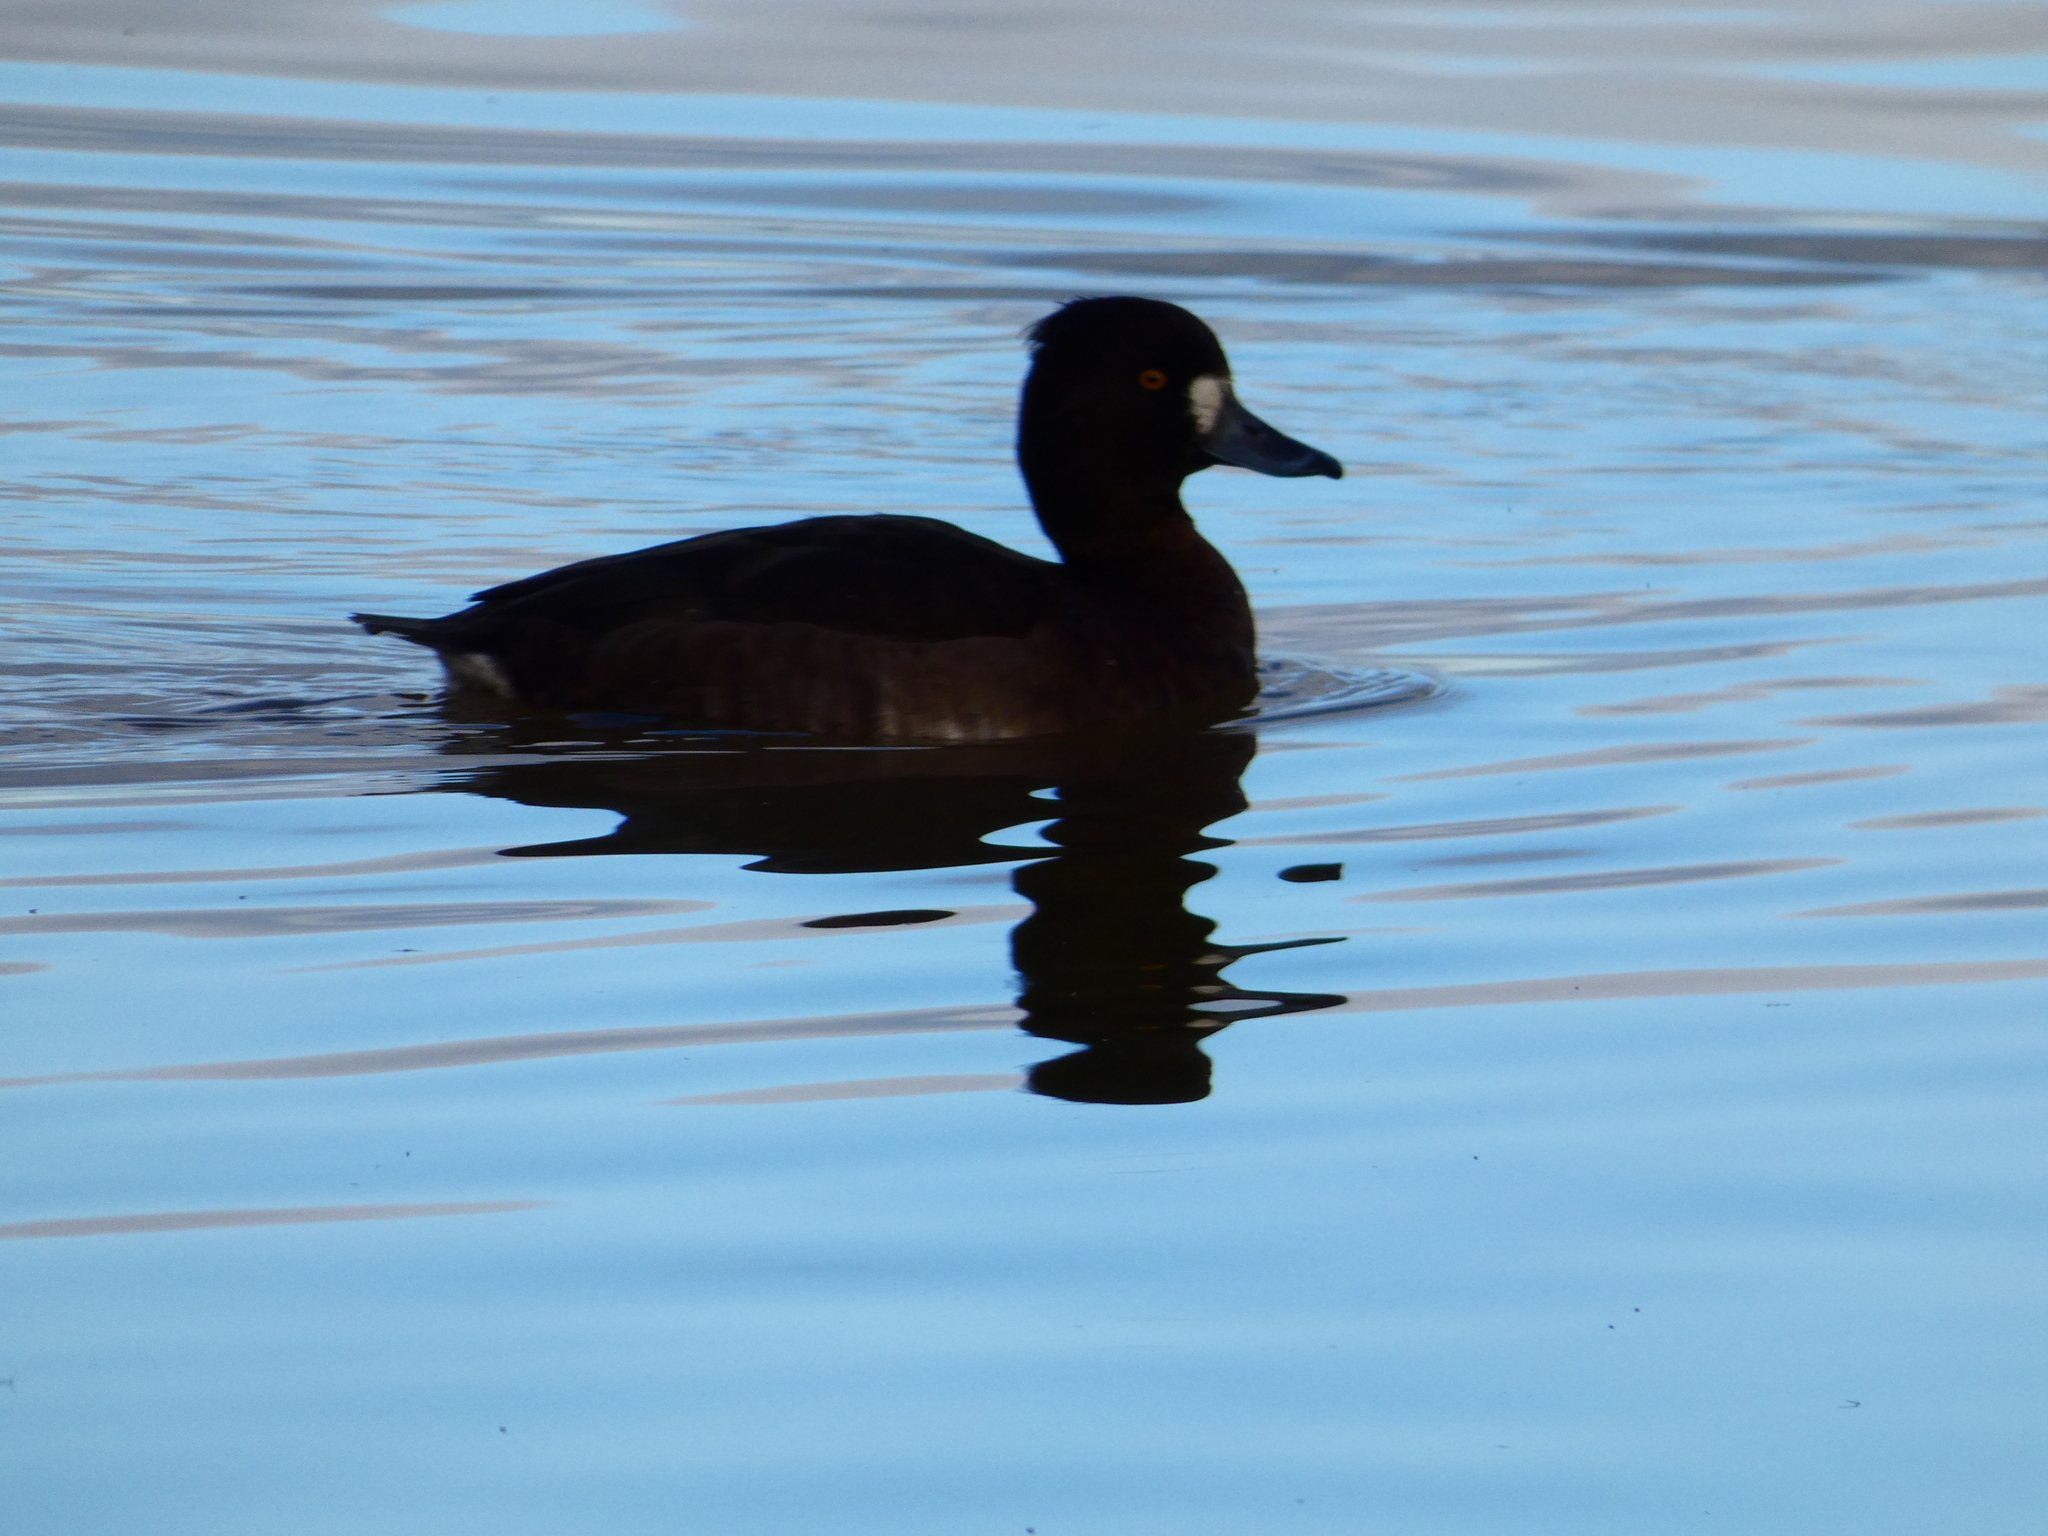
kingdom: Animalia
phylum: Chordata
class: Aves
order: Anseriformes
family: Anatidae
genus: Aythya
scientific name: Aythya fuligula
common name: Tufted duck
